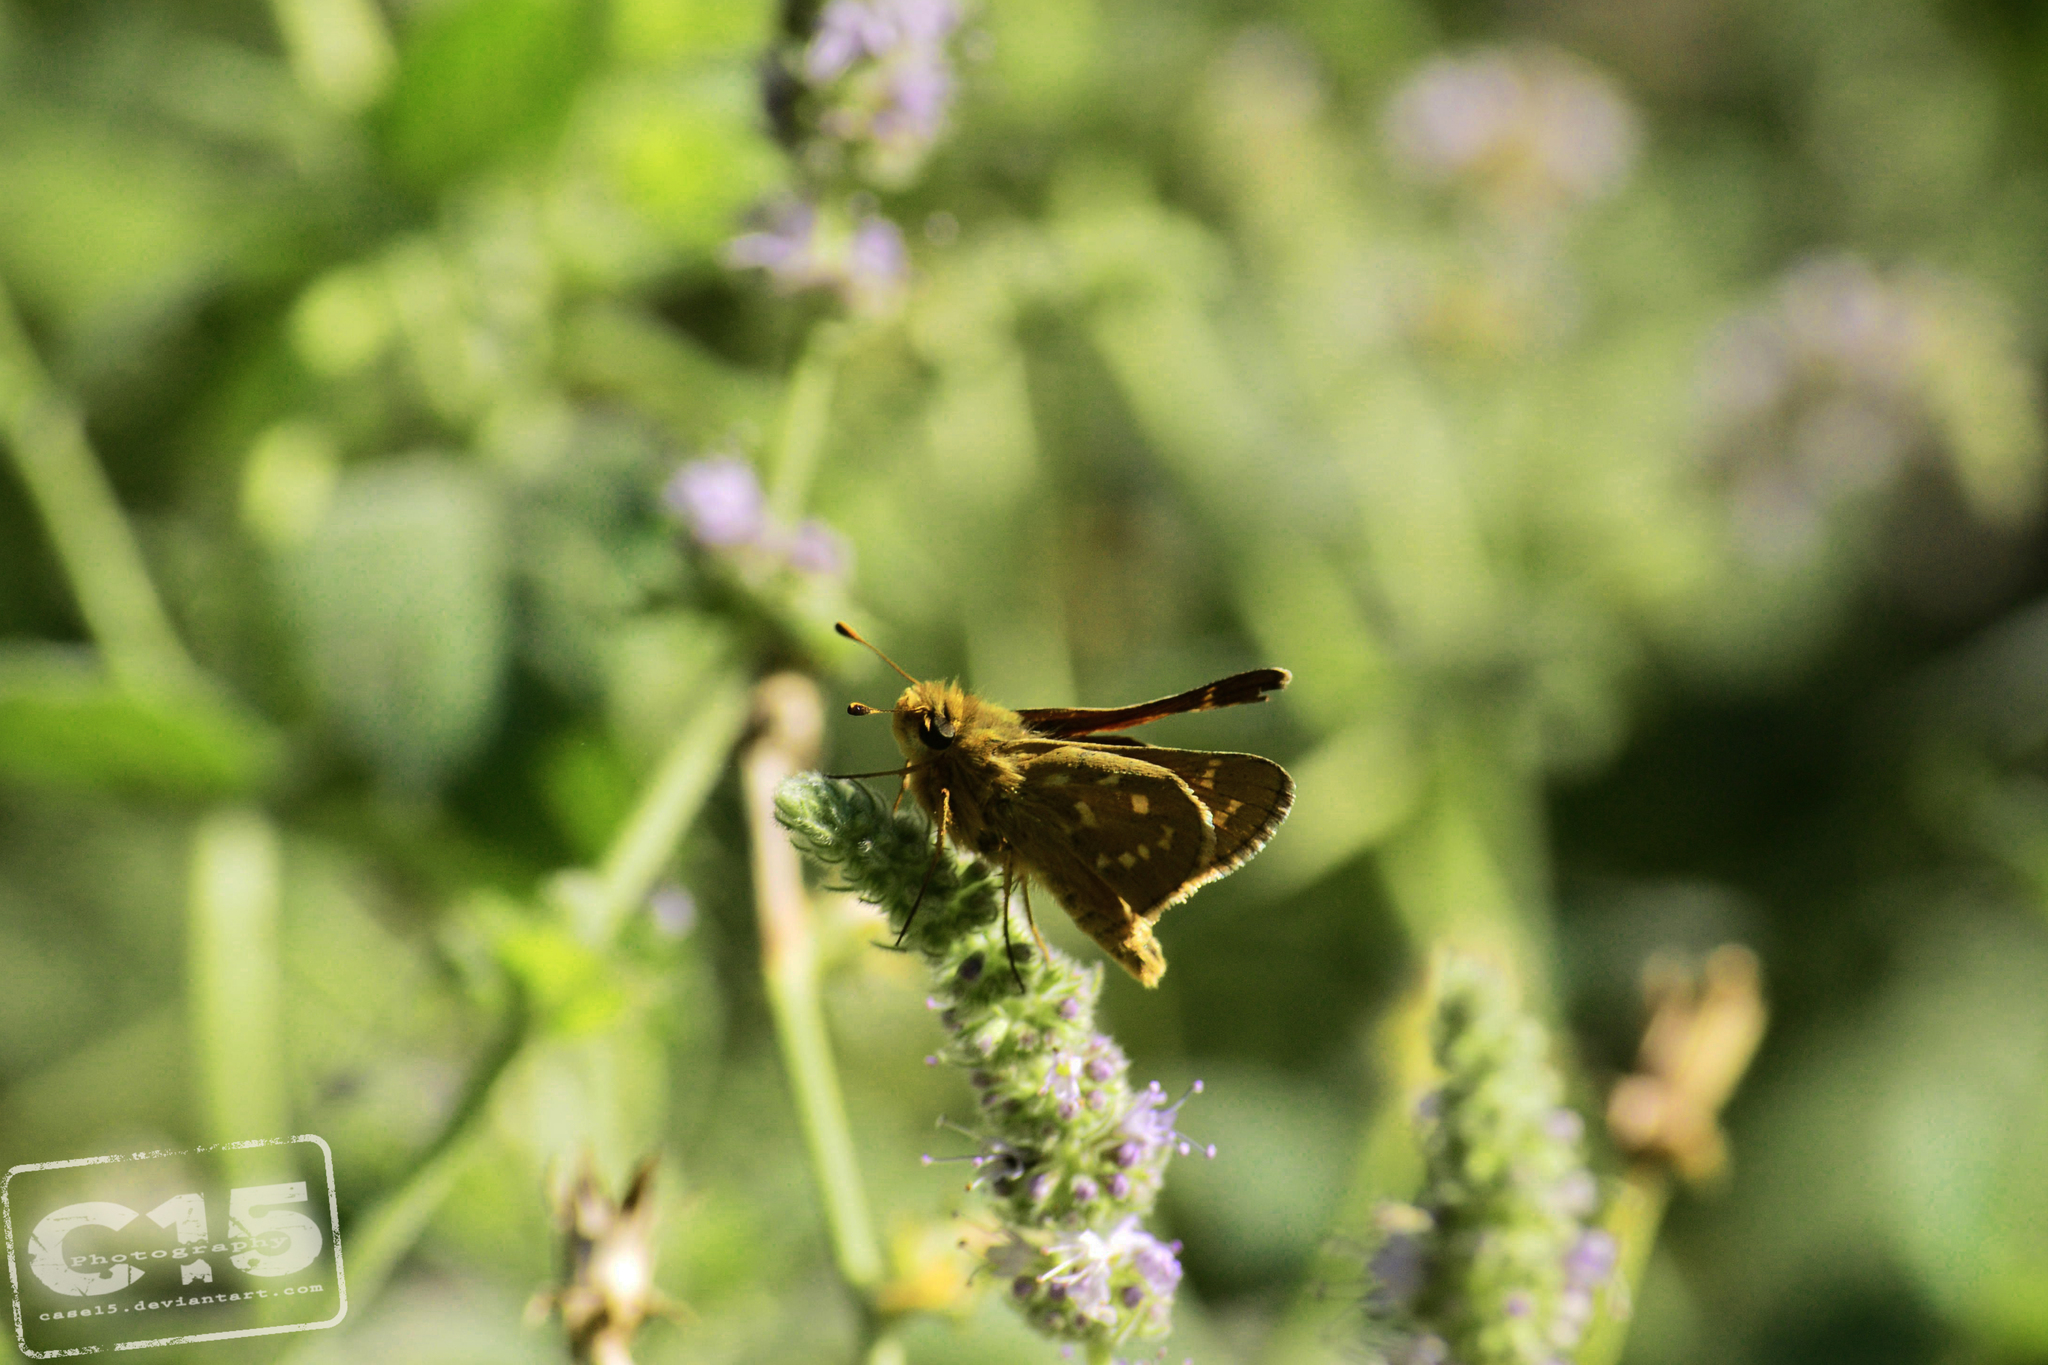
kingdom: Animalia
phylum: Arthropoda
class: Insecta
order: Lepidoptera
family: Hesperiidae
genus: Hesperia
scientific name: Hesperia comma
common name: Common branded skipper
